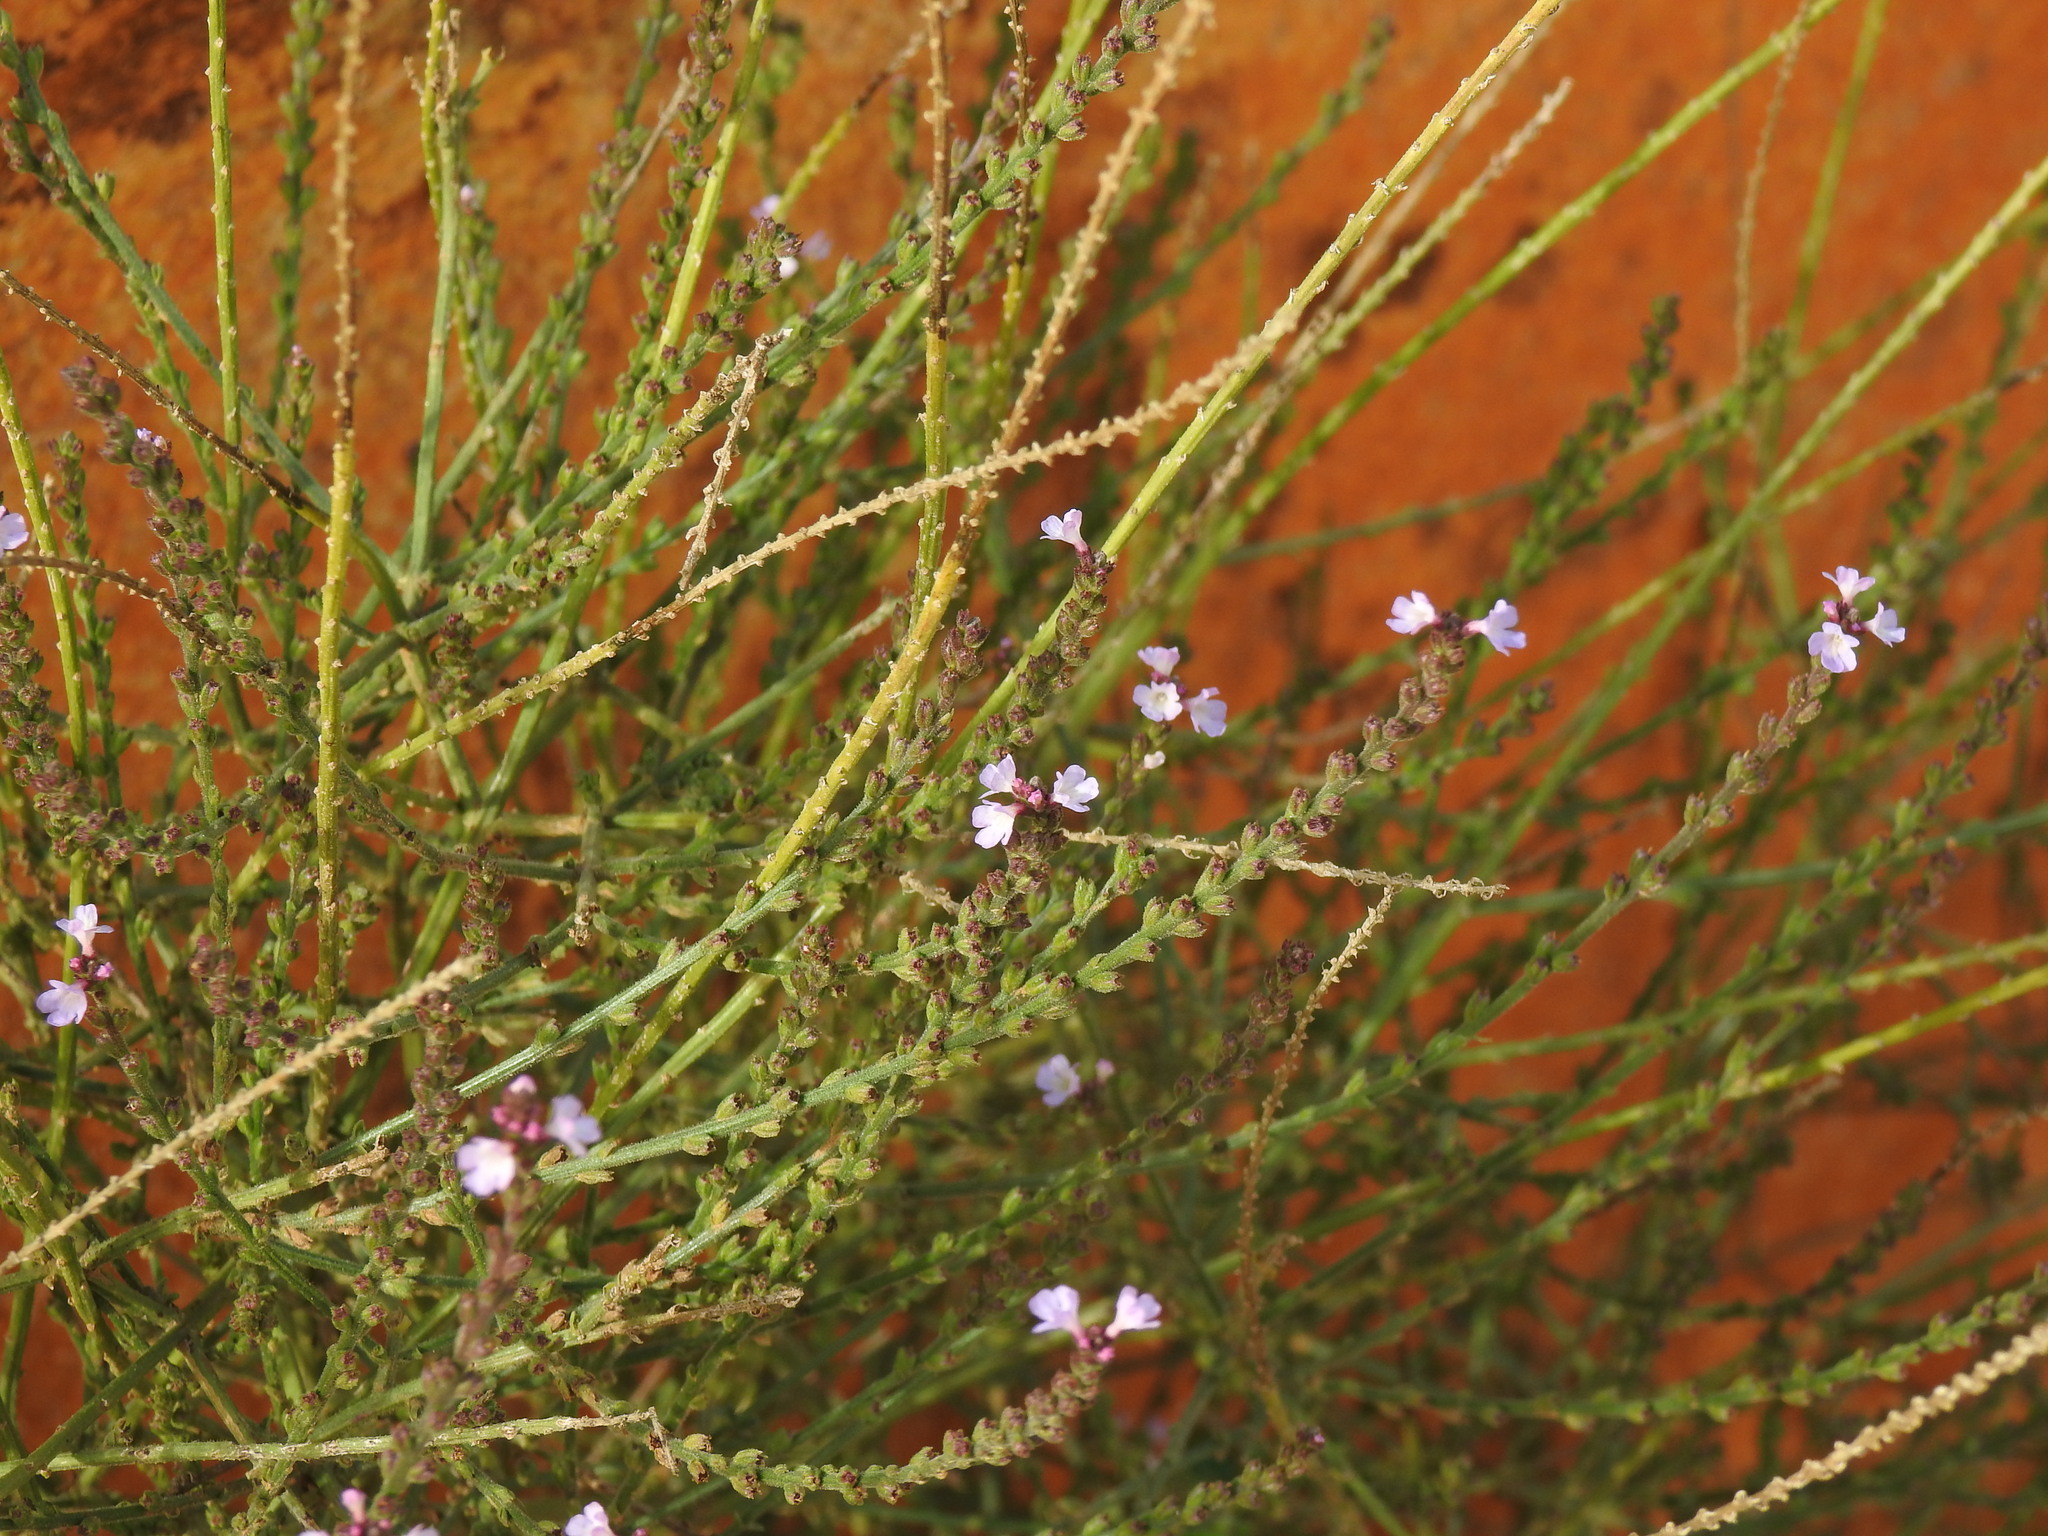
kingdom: Plantae
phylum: Tracheophyta
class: Magnoliopsida
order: Lamiales
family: Verbenaceae
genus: Verbena
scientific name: Verbena officinalis
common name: Vervain
